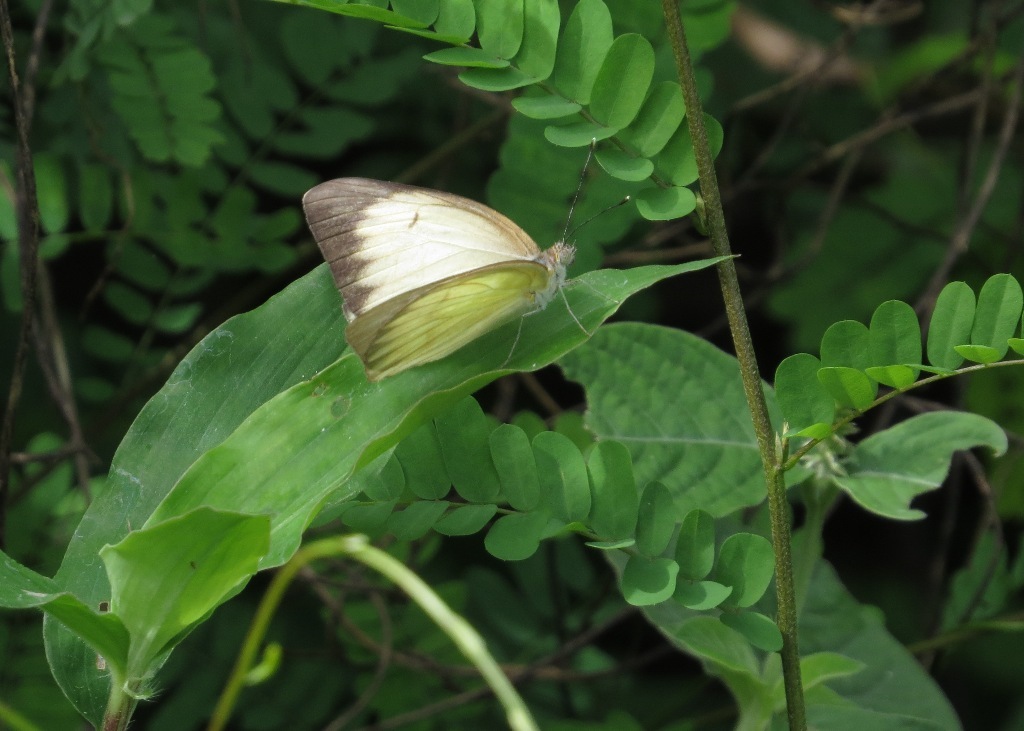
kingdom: Animalia
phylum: Arthropoda
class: Insecta
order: Lepidoptera
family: Pieridae
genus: Ascia
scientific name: Ascia monuste
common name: Great southern white
